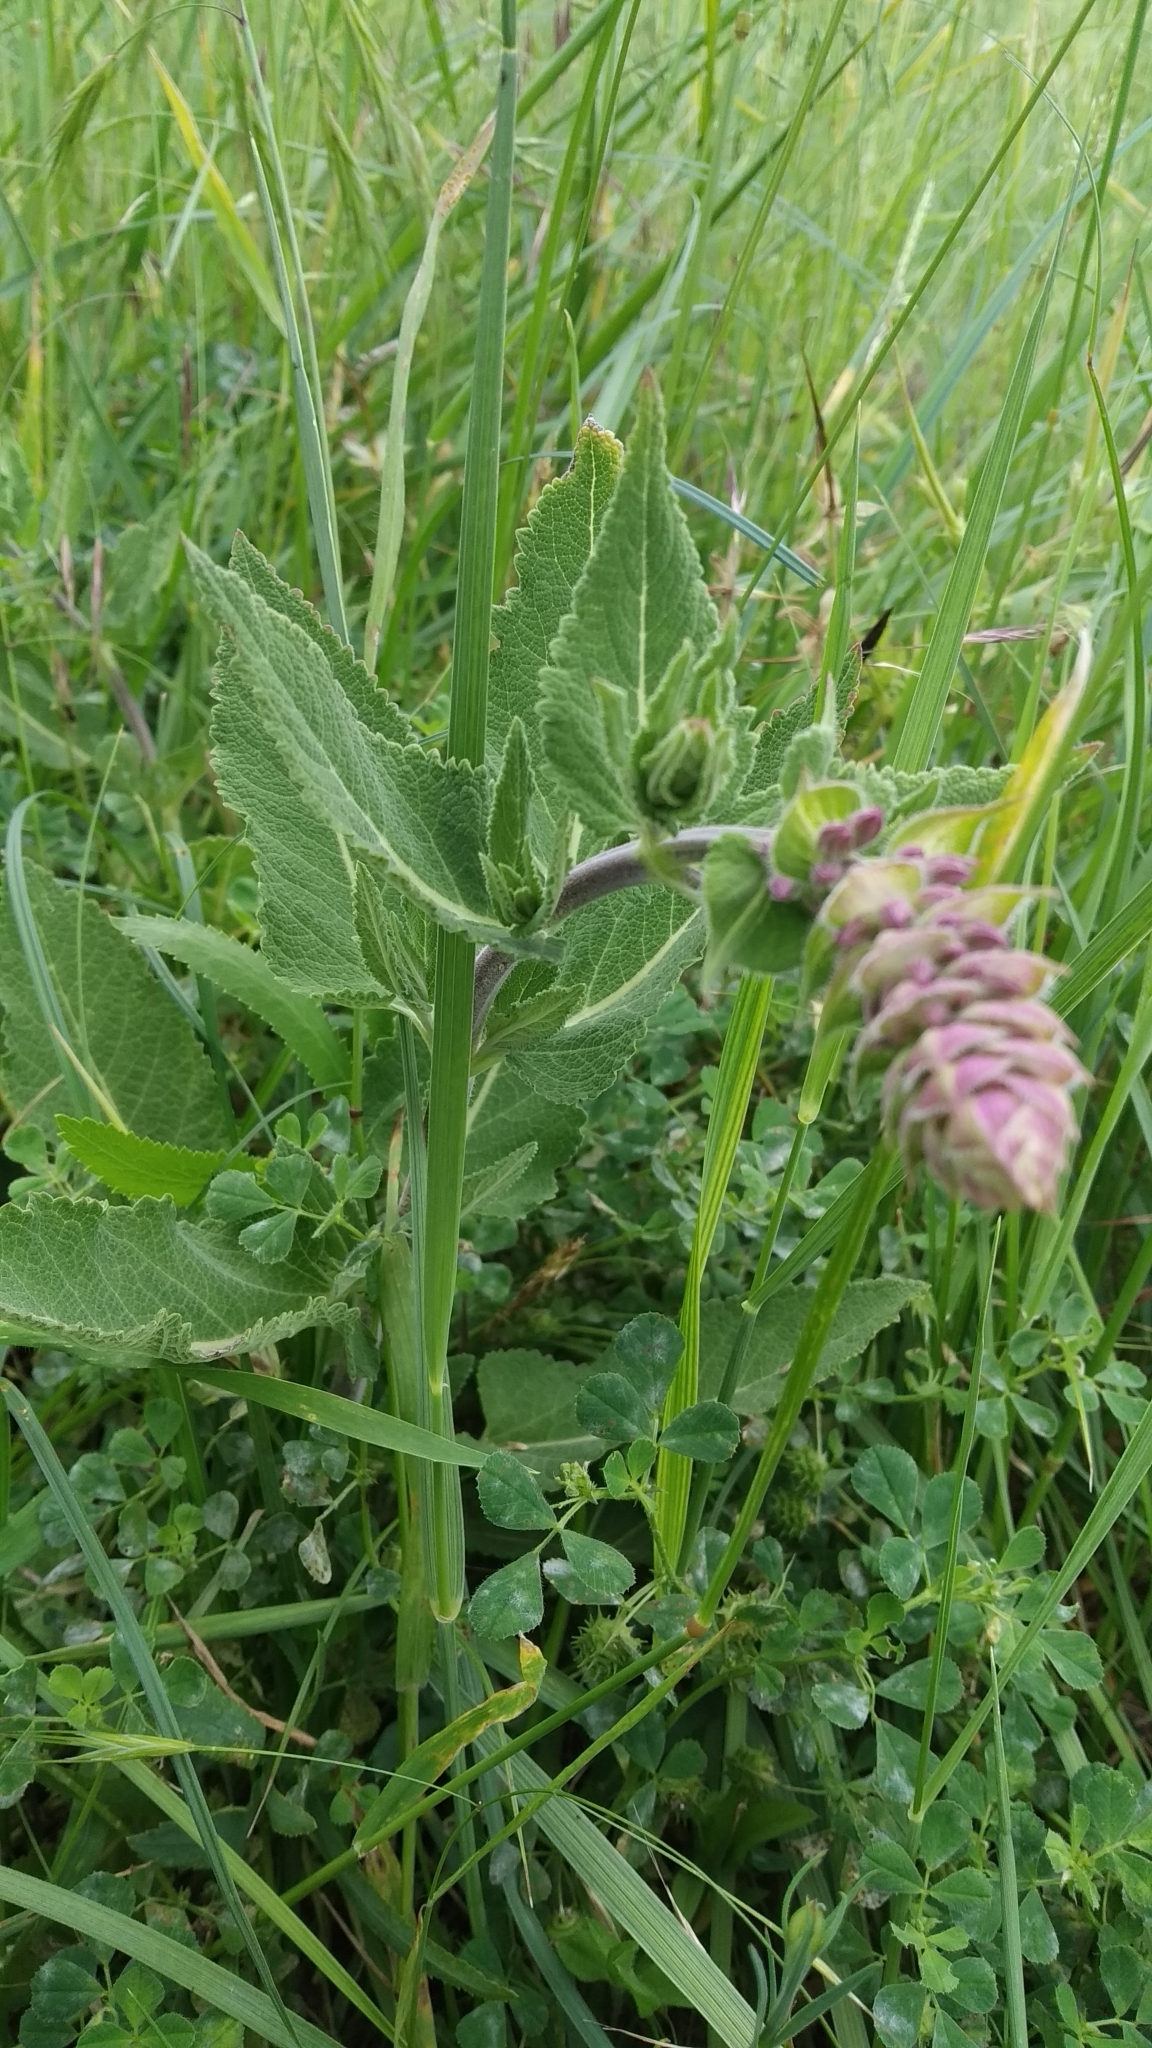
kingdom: Plantae
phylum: Tracheophyta
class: Magnoliopsida
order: Lamiales
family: Lamiaceae
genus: Salvia
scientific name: Salvia nemorosa
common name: Balkan clary
